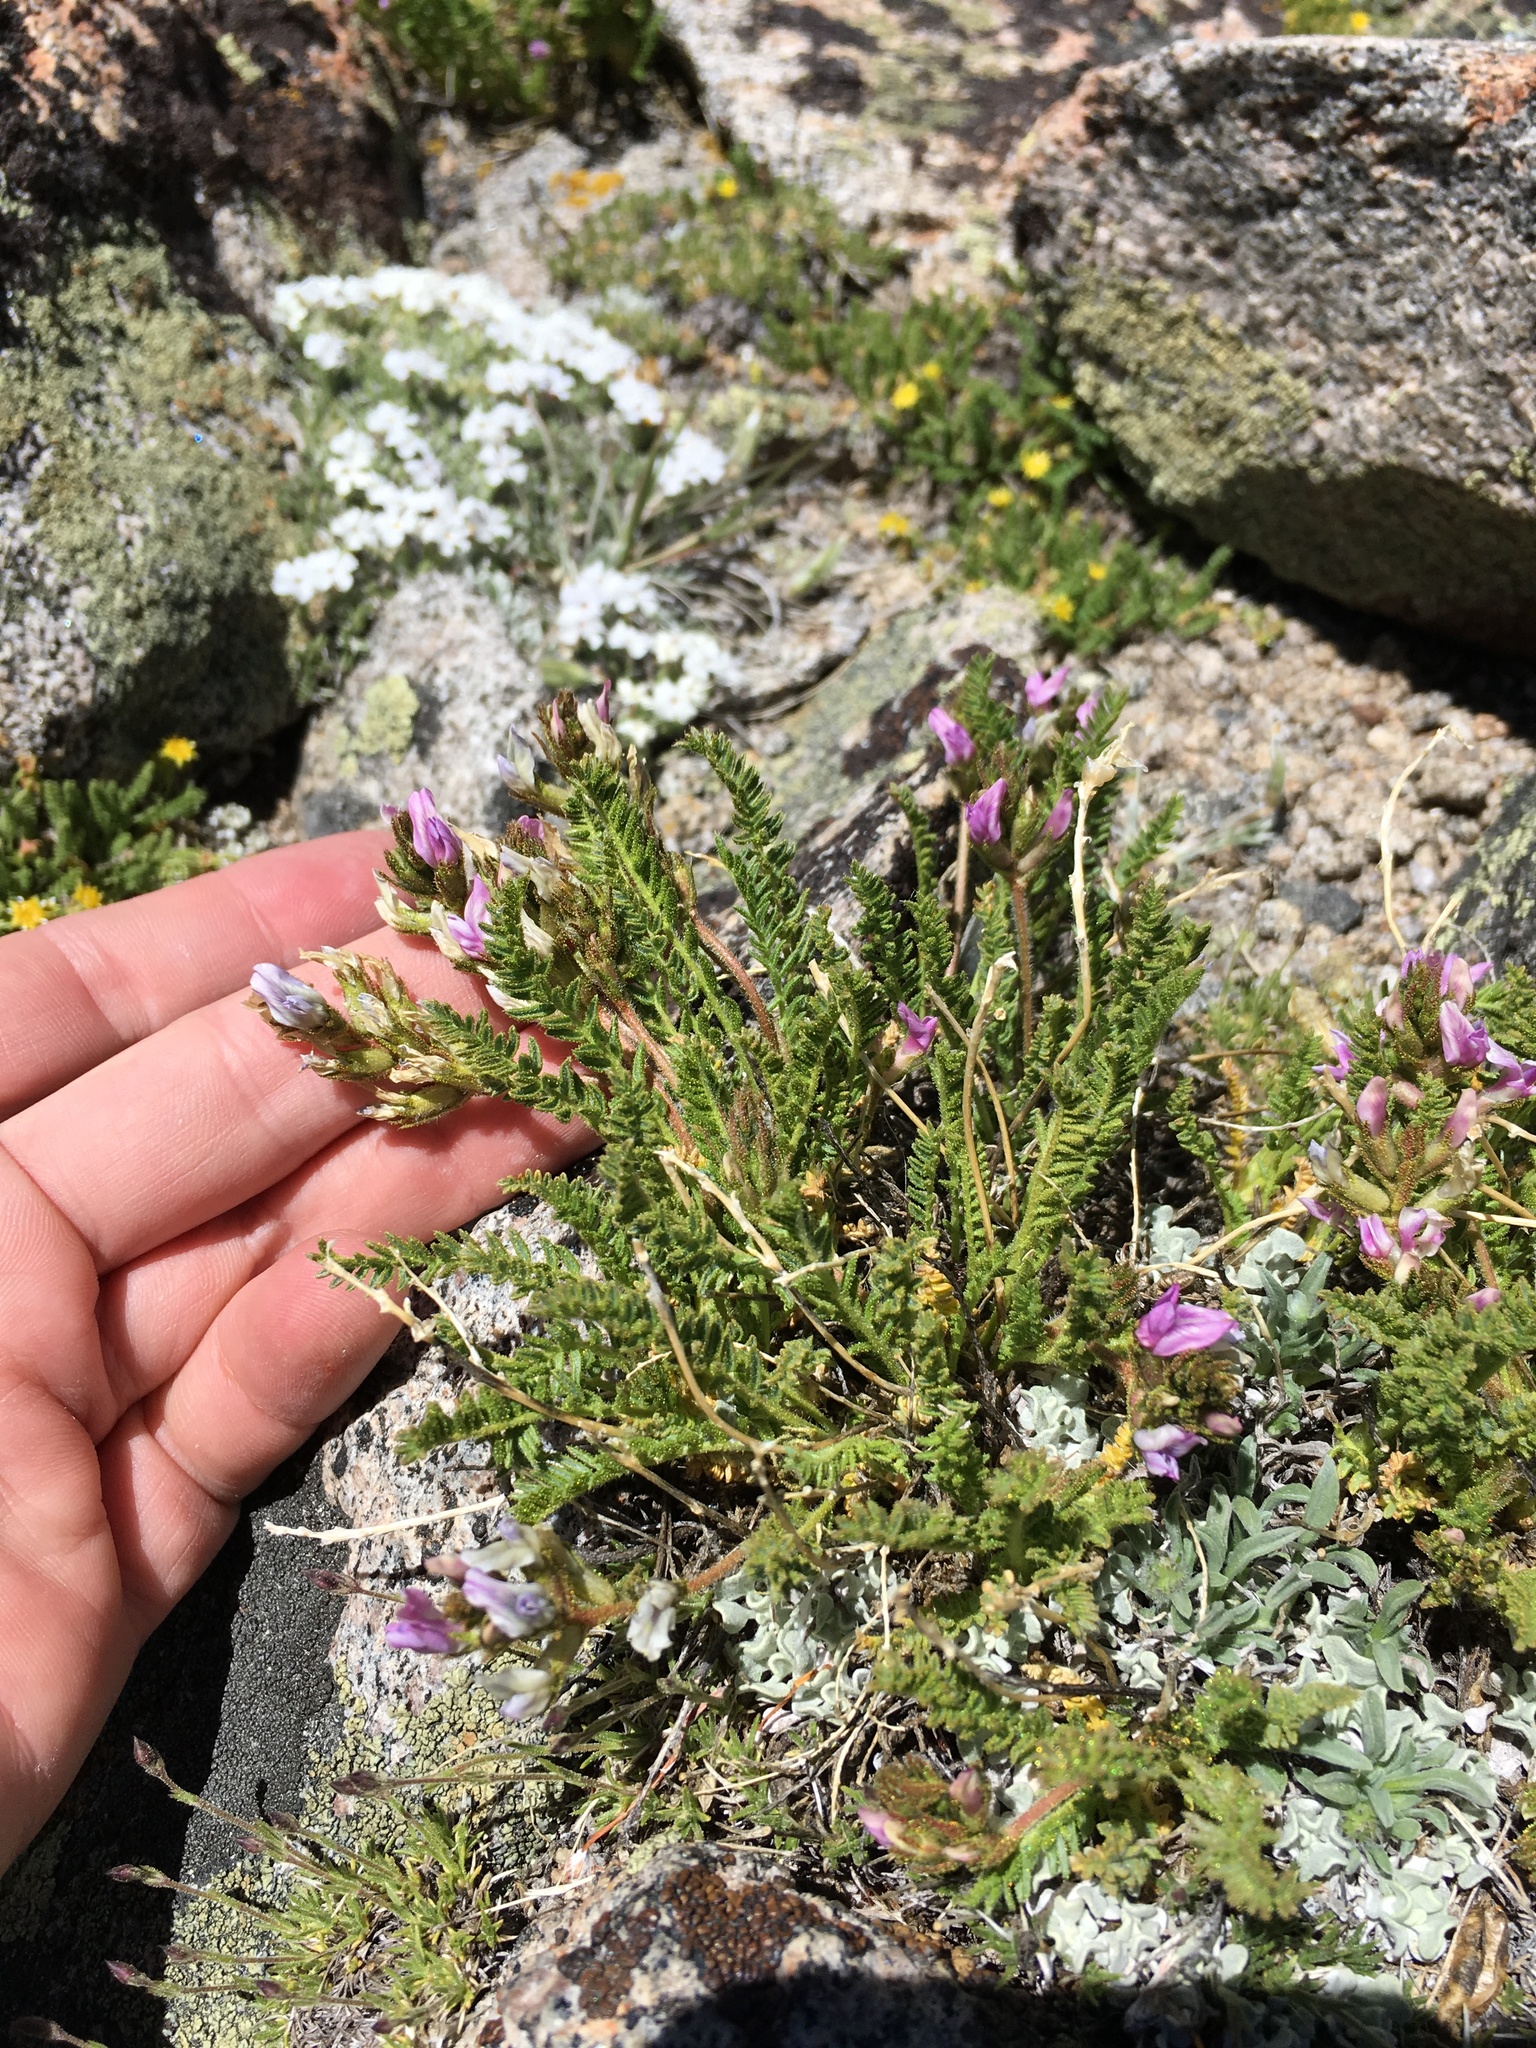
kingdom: Plantae
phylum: Tracheophyta
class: Magnoliopsida
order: Fabales
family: Fabaceae
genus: Oxytropis
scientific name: Oxytropis borealis
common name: Boreal locoweed
